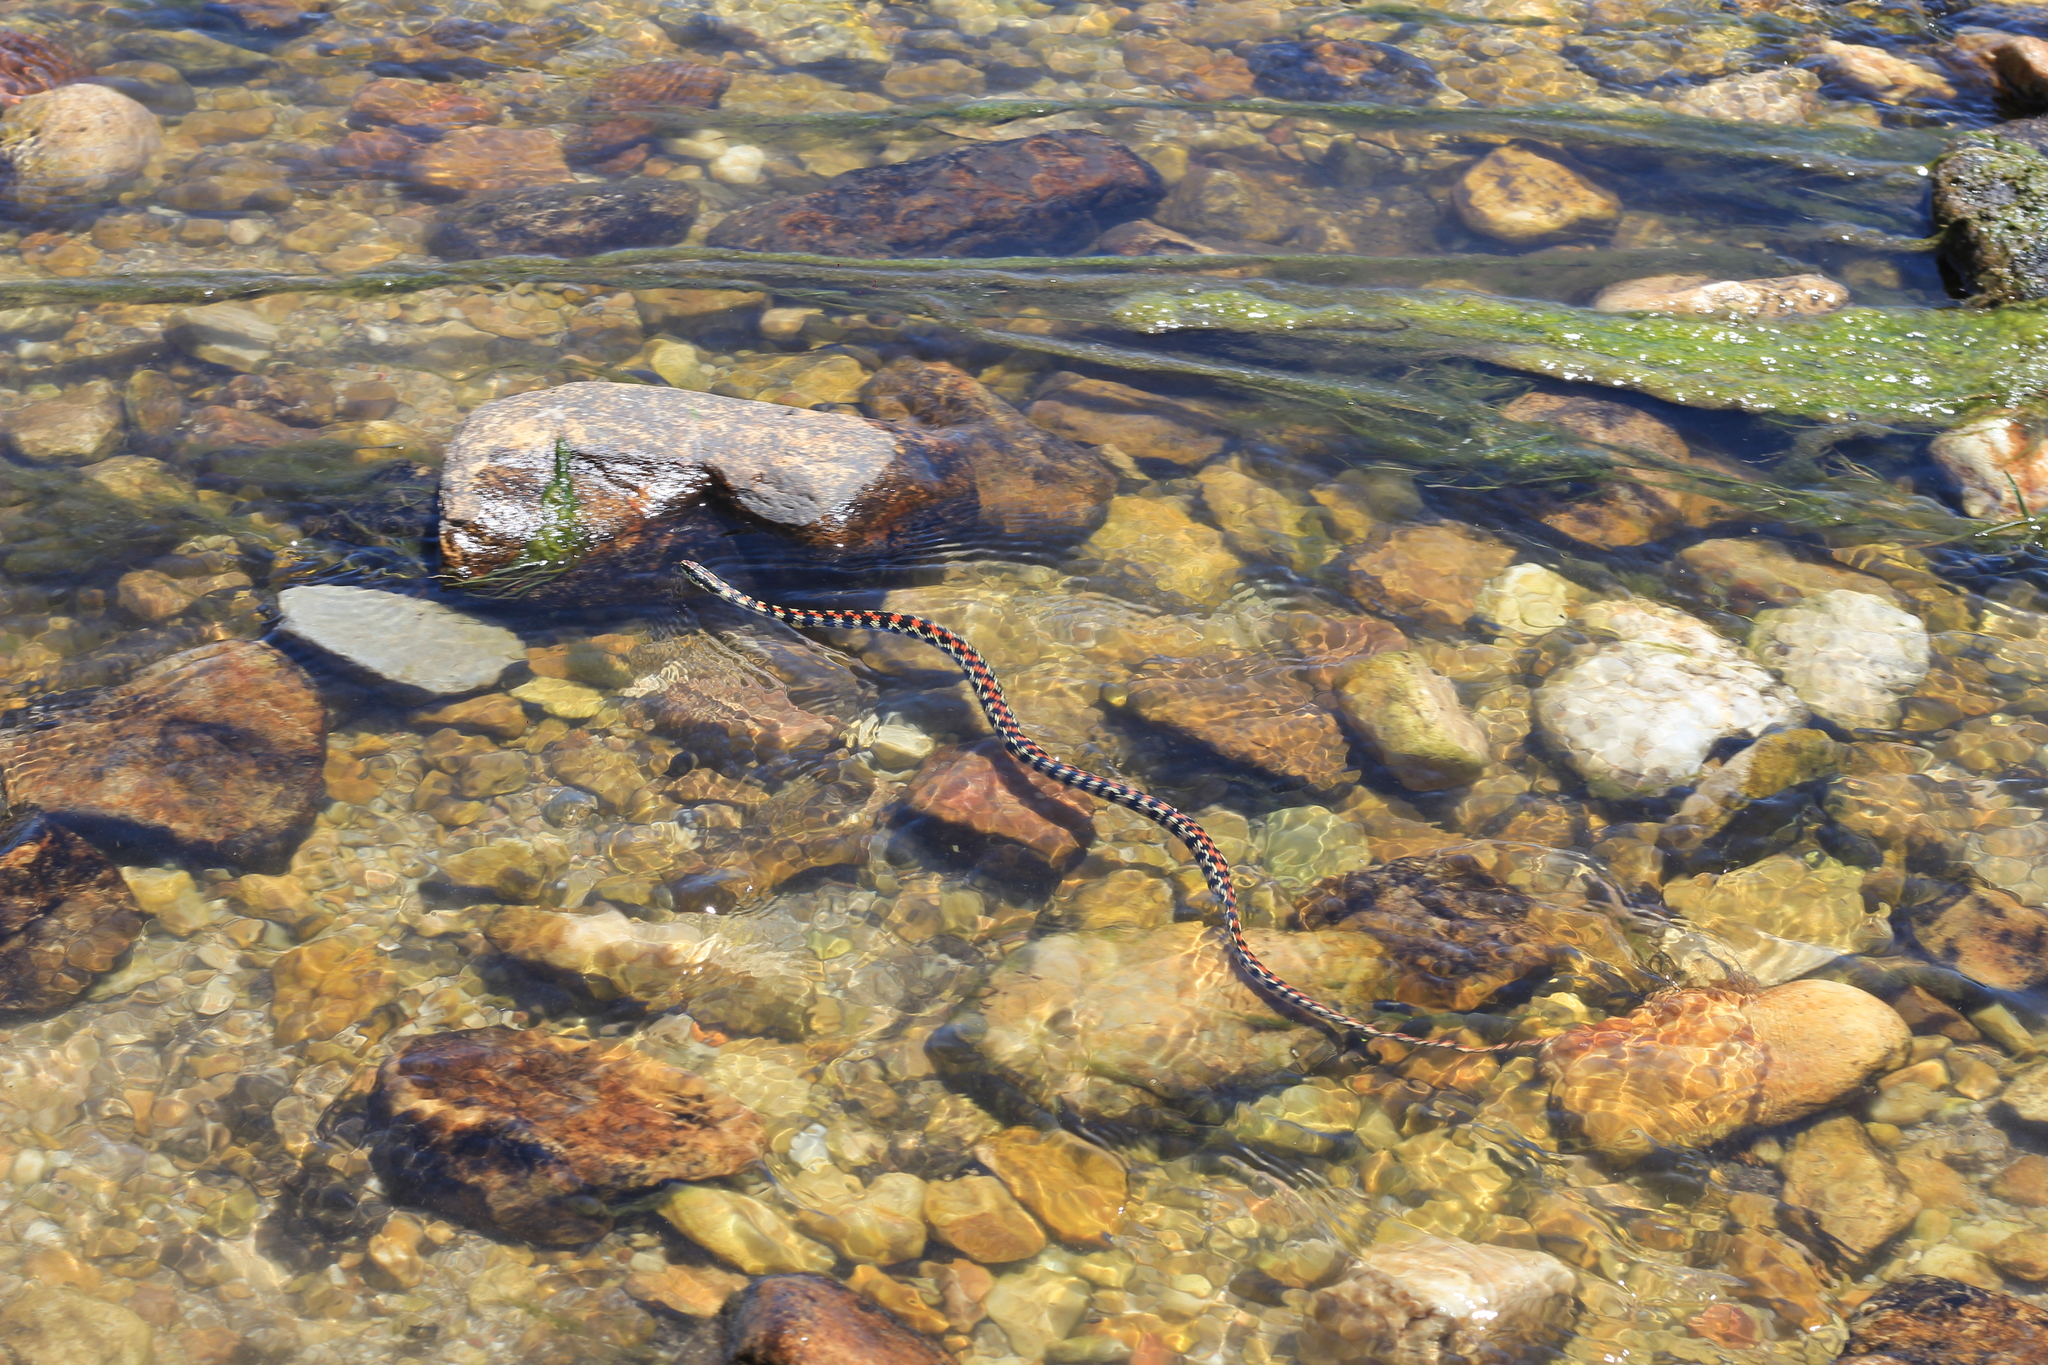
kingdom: Animalia
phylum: Chordata
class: Squamata
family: Colubridae
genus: Lygophis
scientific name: Lygophis elegantissimus
